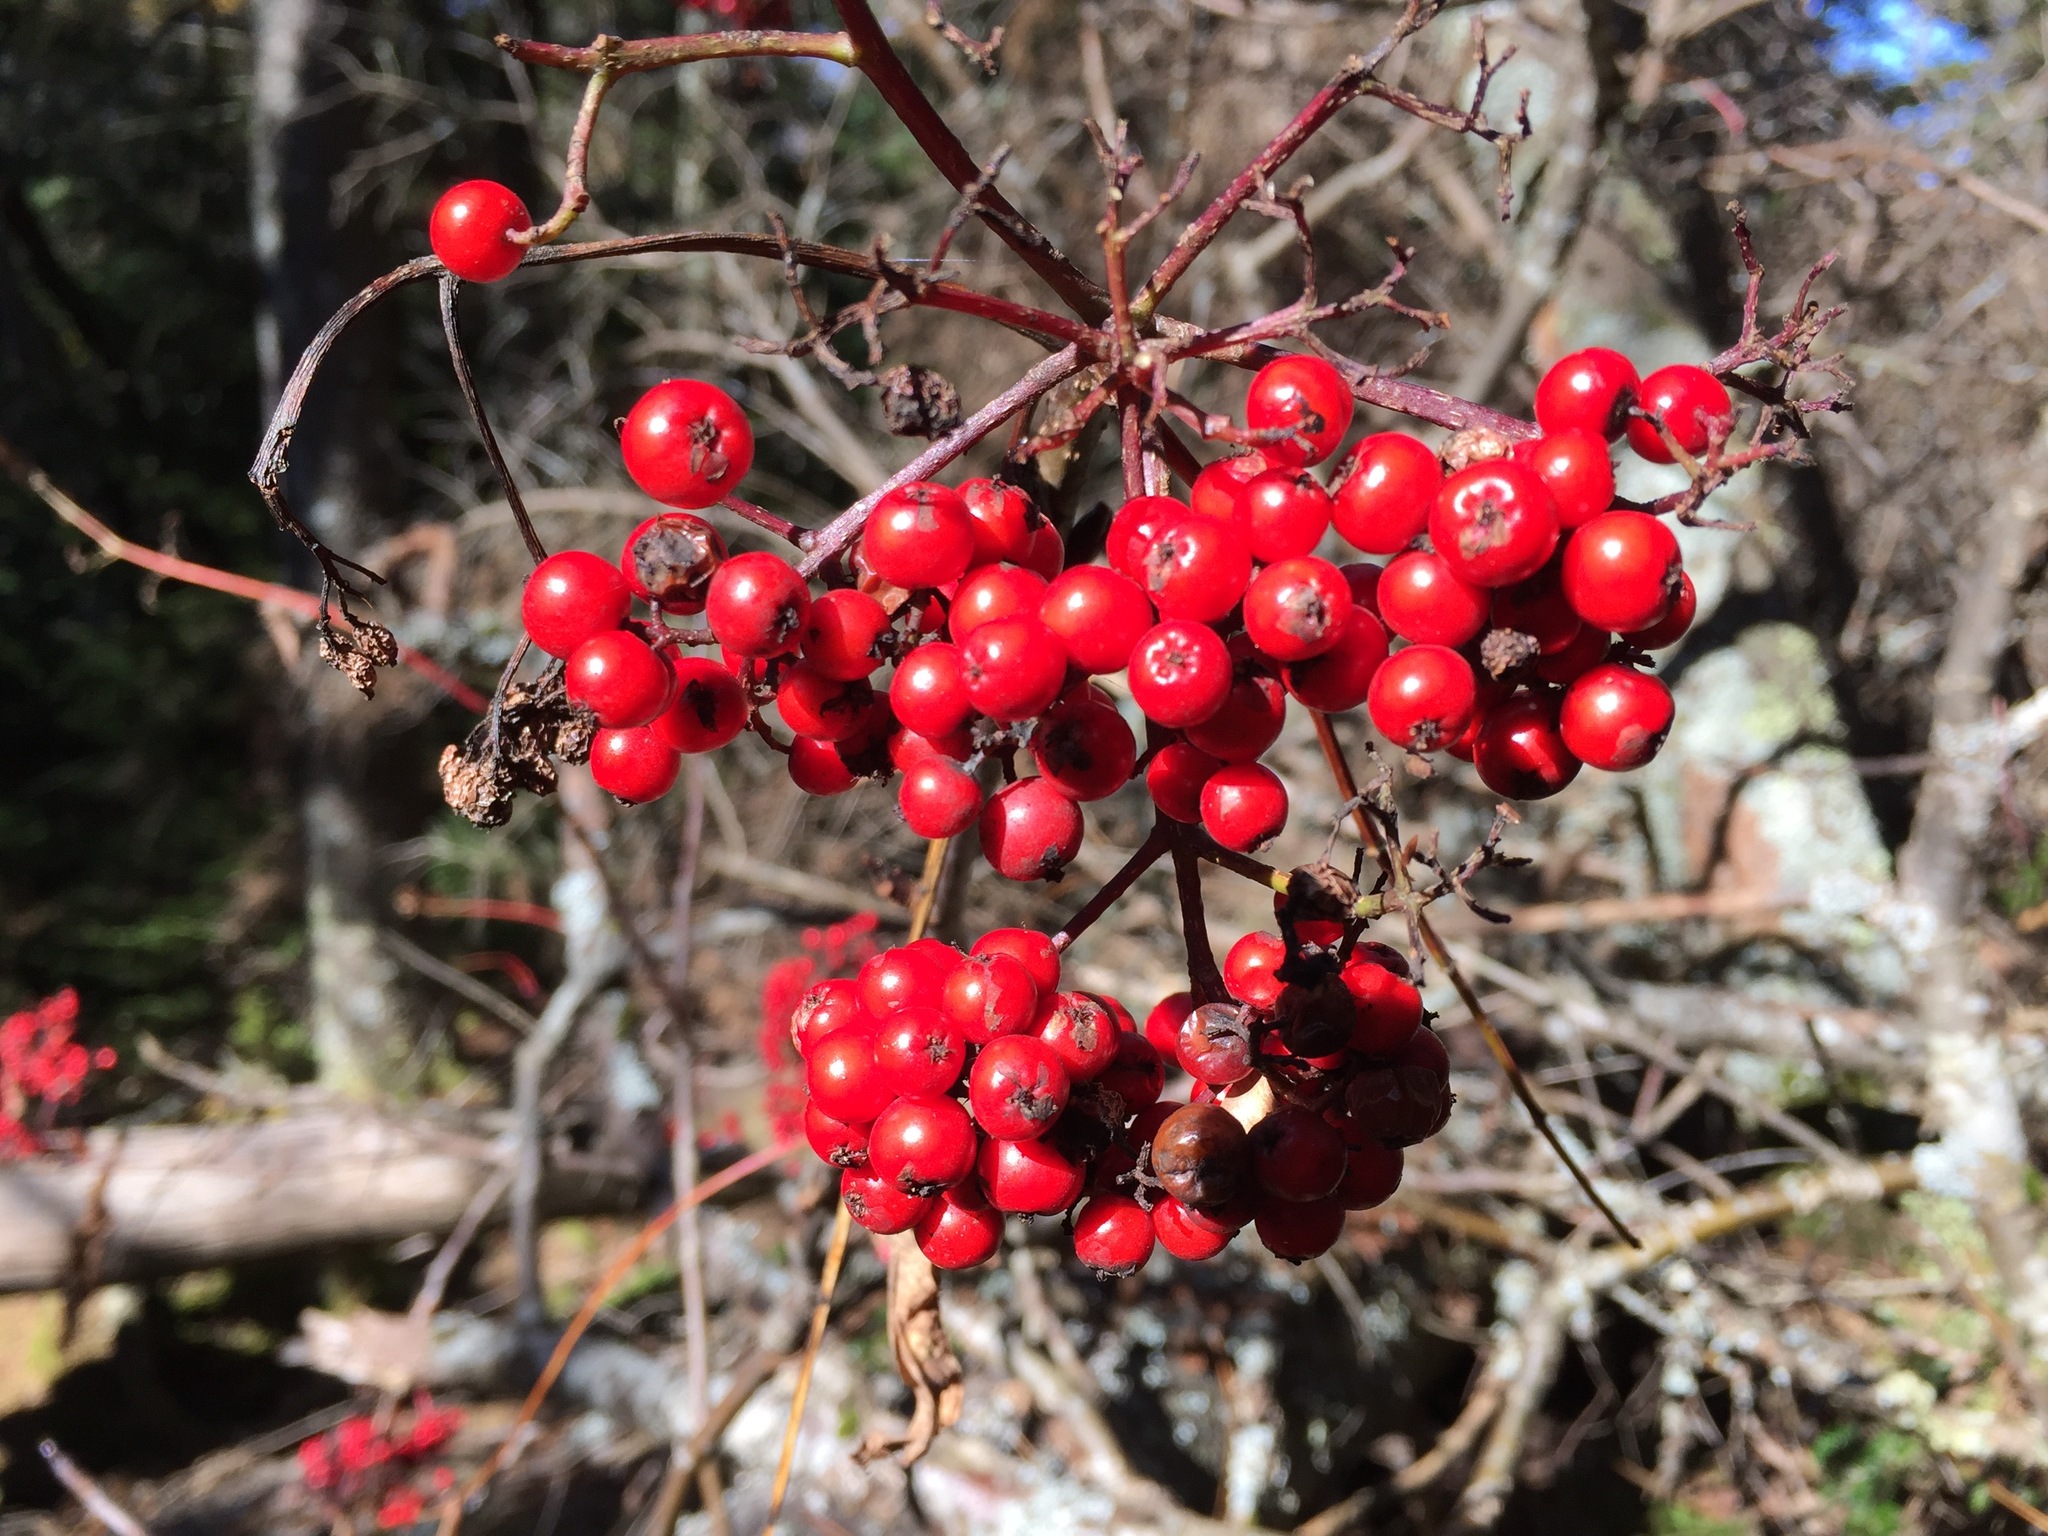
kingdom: Plantae
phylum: Tracheophyta
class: Magnoliopsida
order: Rosales
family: Rosaceae
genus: Sorbus
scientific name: Sorbus americana
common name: American mountain-ash
